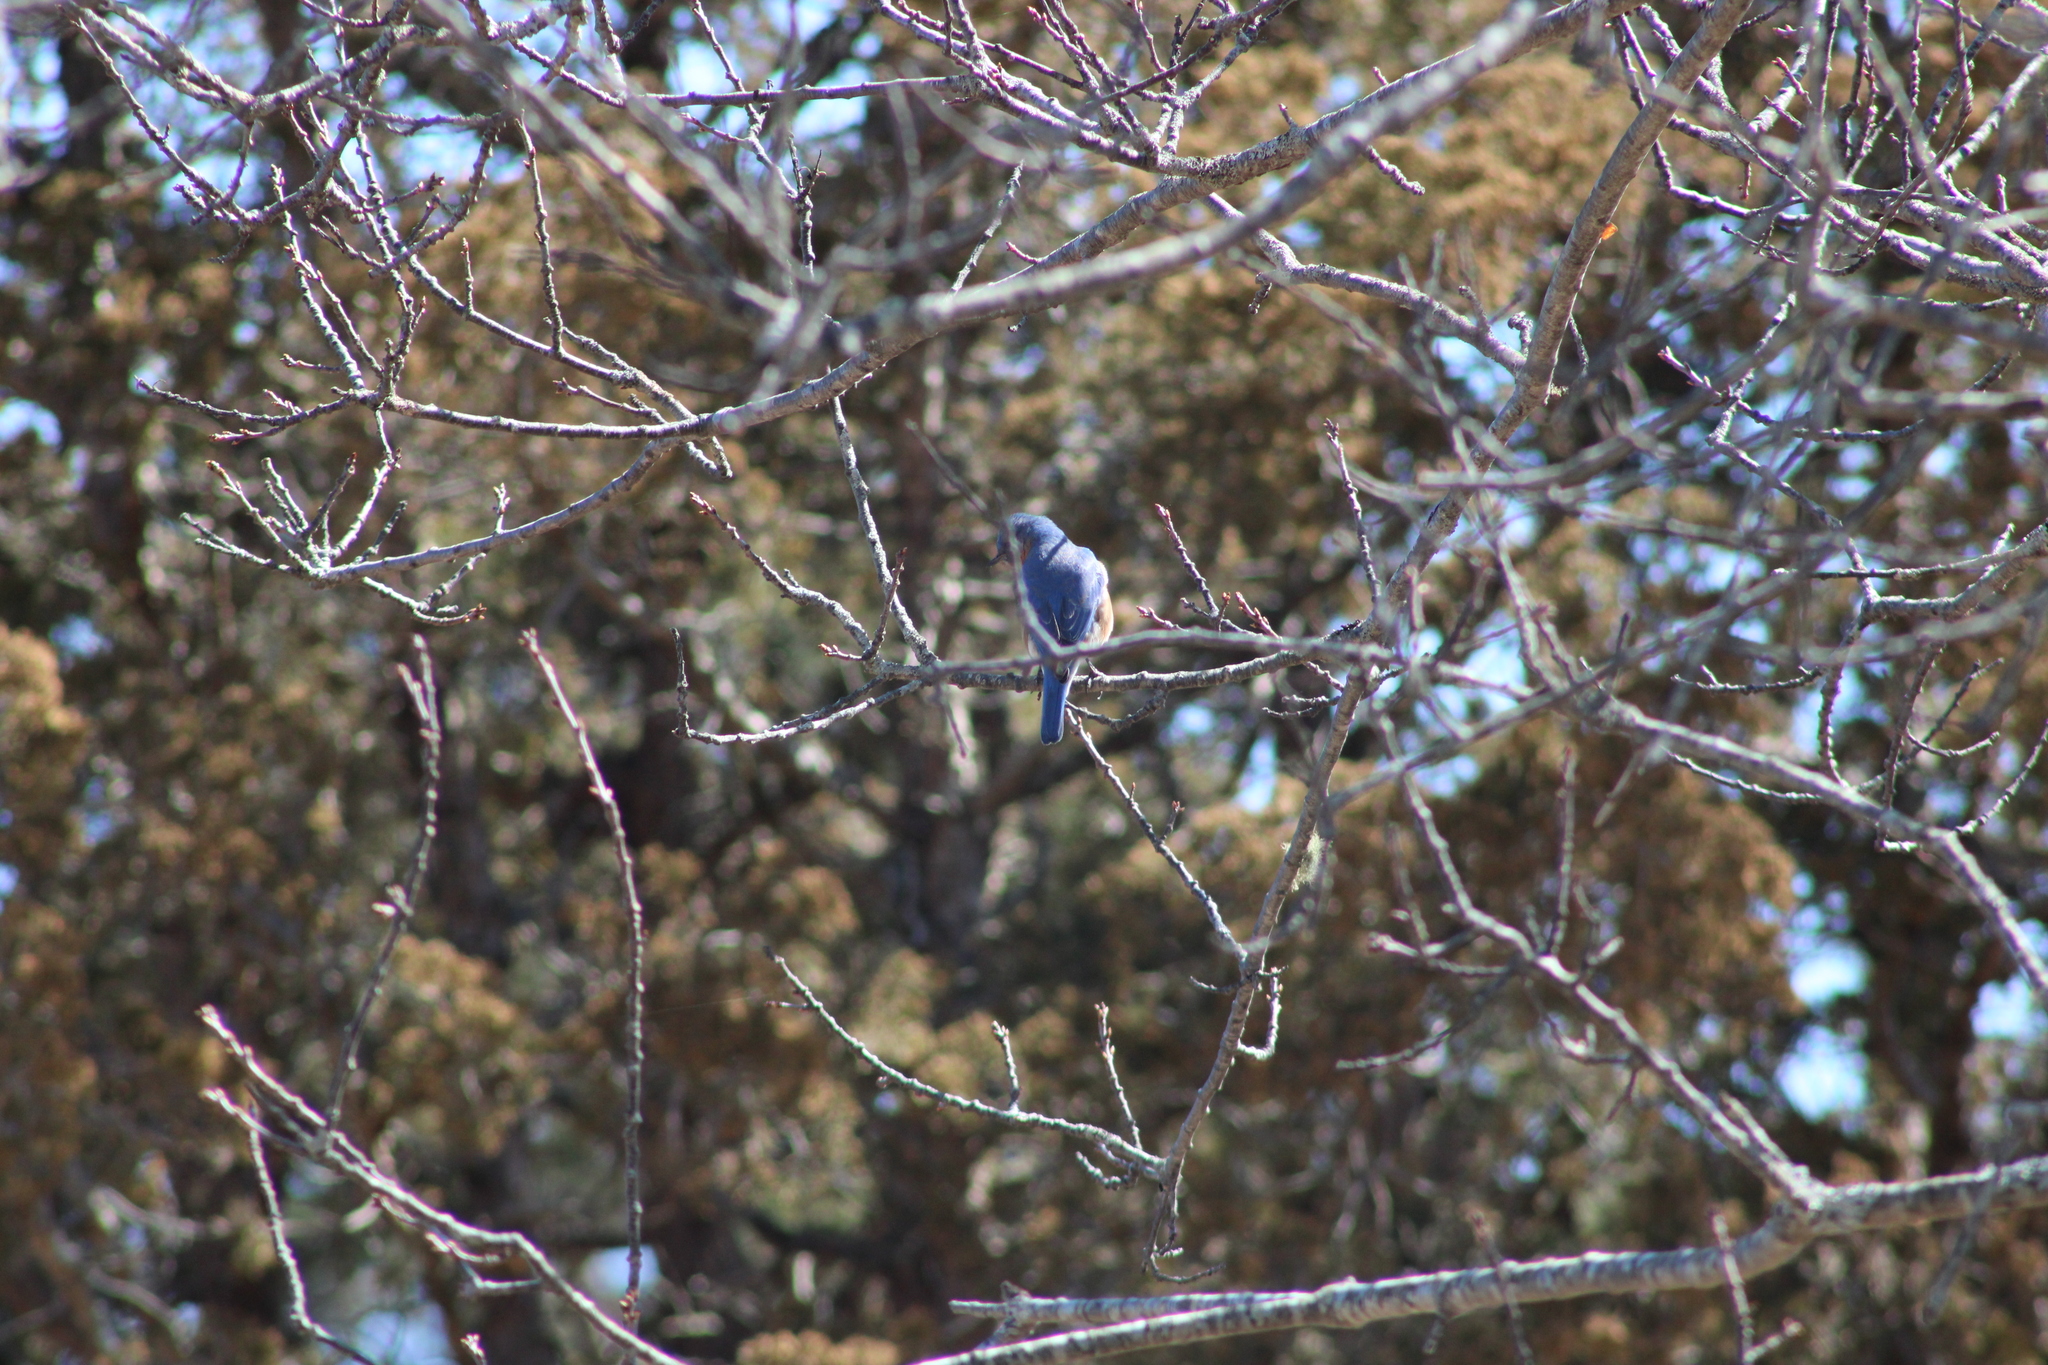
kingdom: Animalia
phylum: Chordata
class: Aves
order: Passeriformes
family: Turdidae
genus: Sialia
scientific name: Sialia sialis
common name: Eastern bluebird
